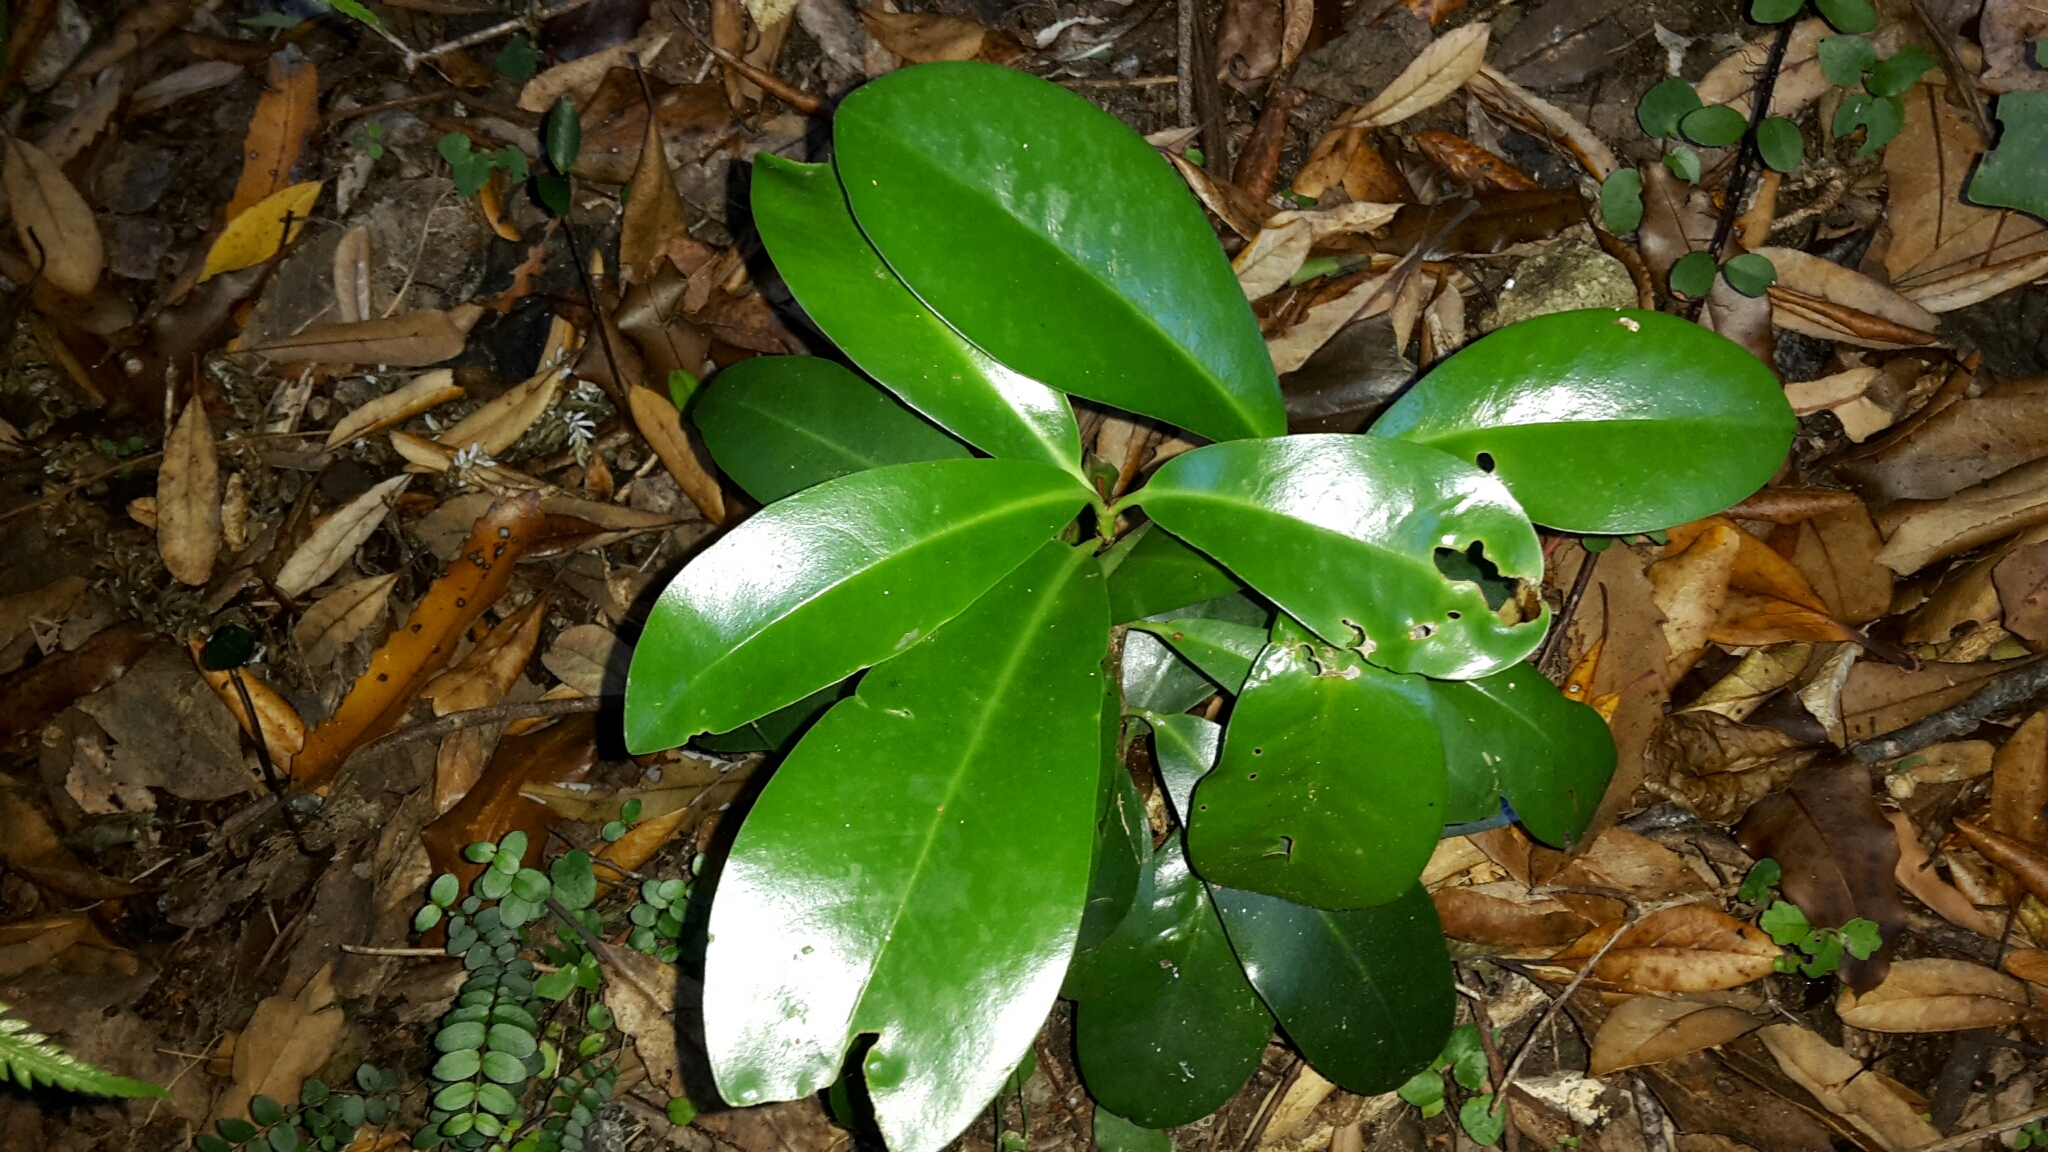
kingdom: Plantae
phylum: Tracheophyta
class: Magnoliopsida
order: Cucurbitales
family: Corynocarpaceae
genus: Corynocarpus
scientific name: Corynocarpus laevigatus
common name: New zealand laurel
